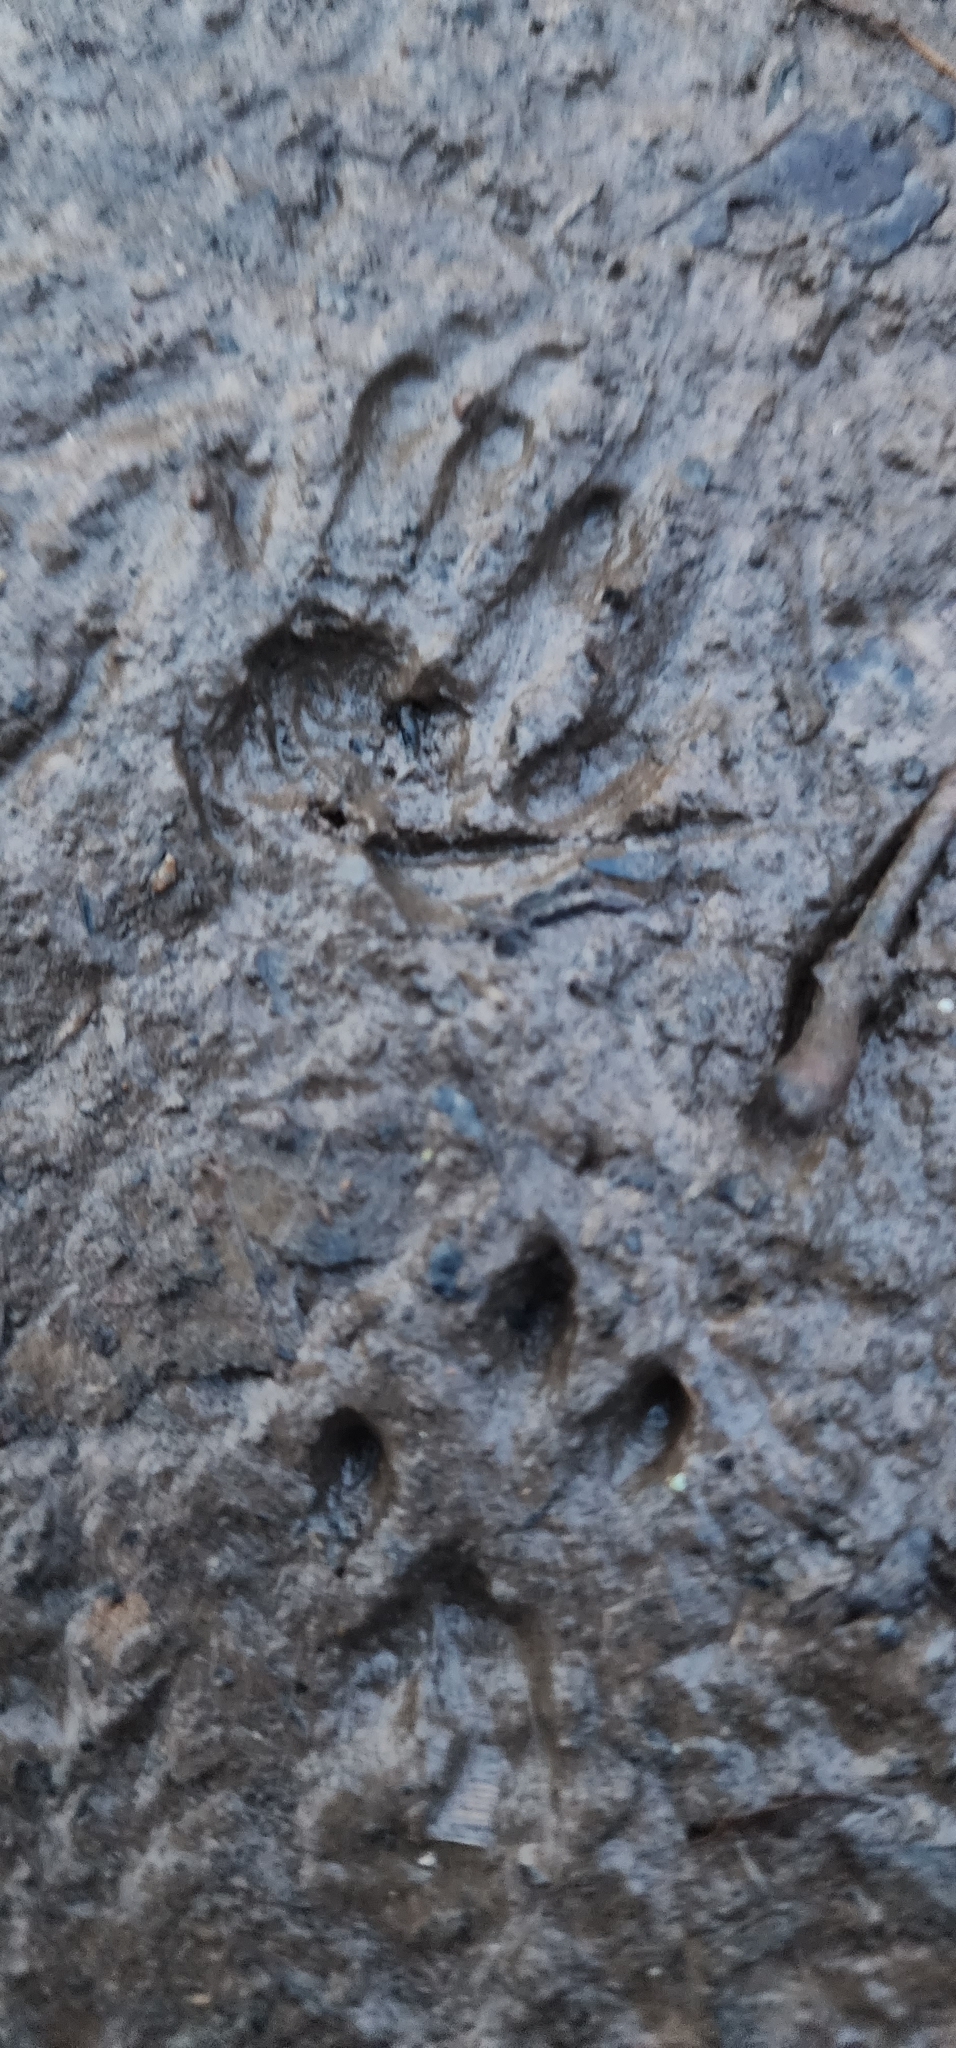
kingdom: Animalia
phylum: Chordata
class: Mammalia
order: Rodentia
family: Sciuridae
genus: Sciurus
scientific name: Sciurus carolinensis
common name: Eastern gray squirrel
